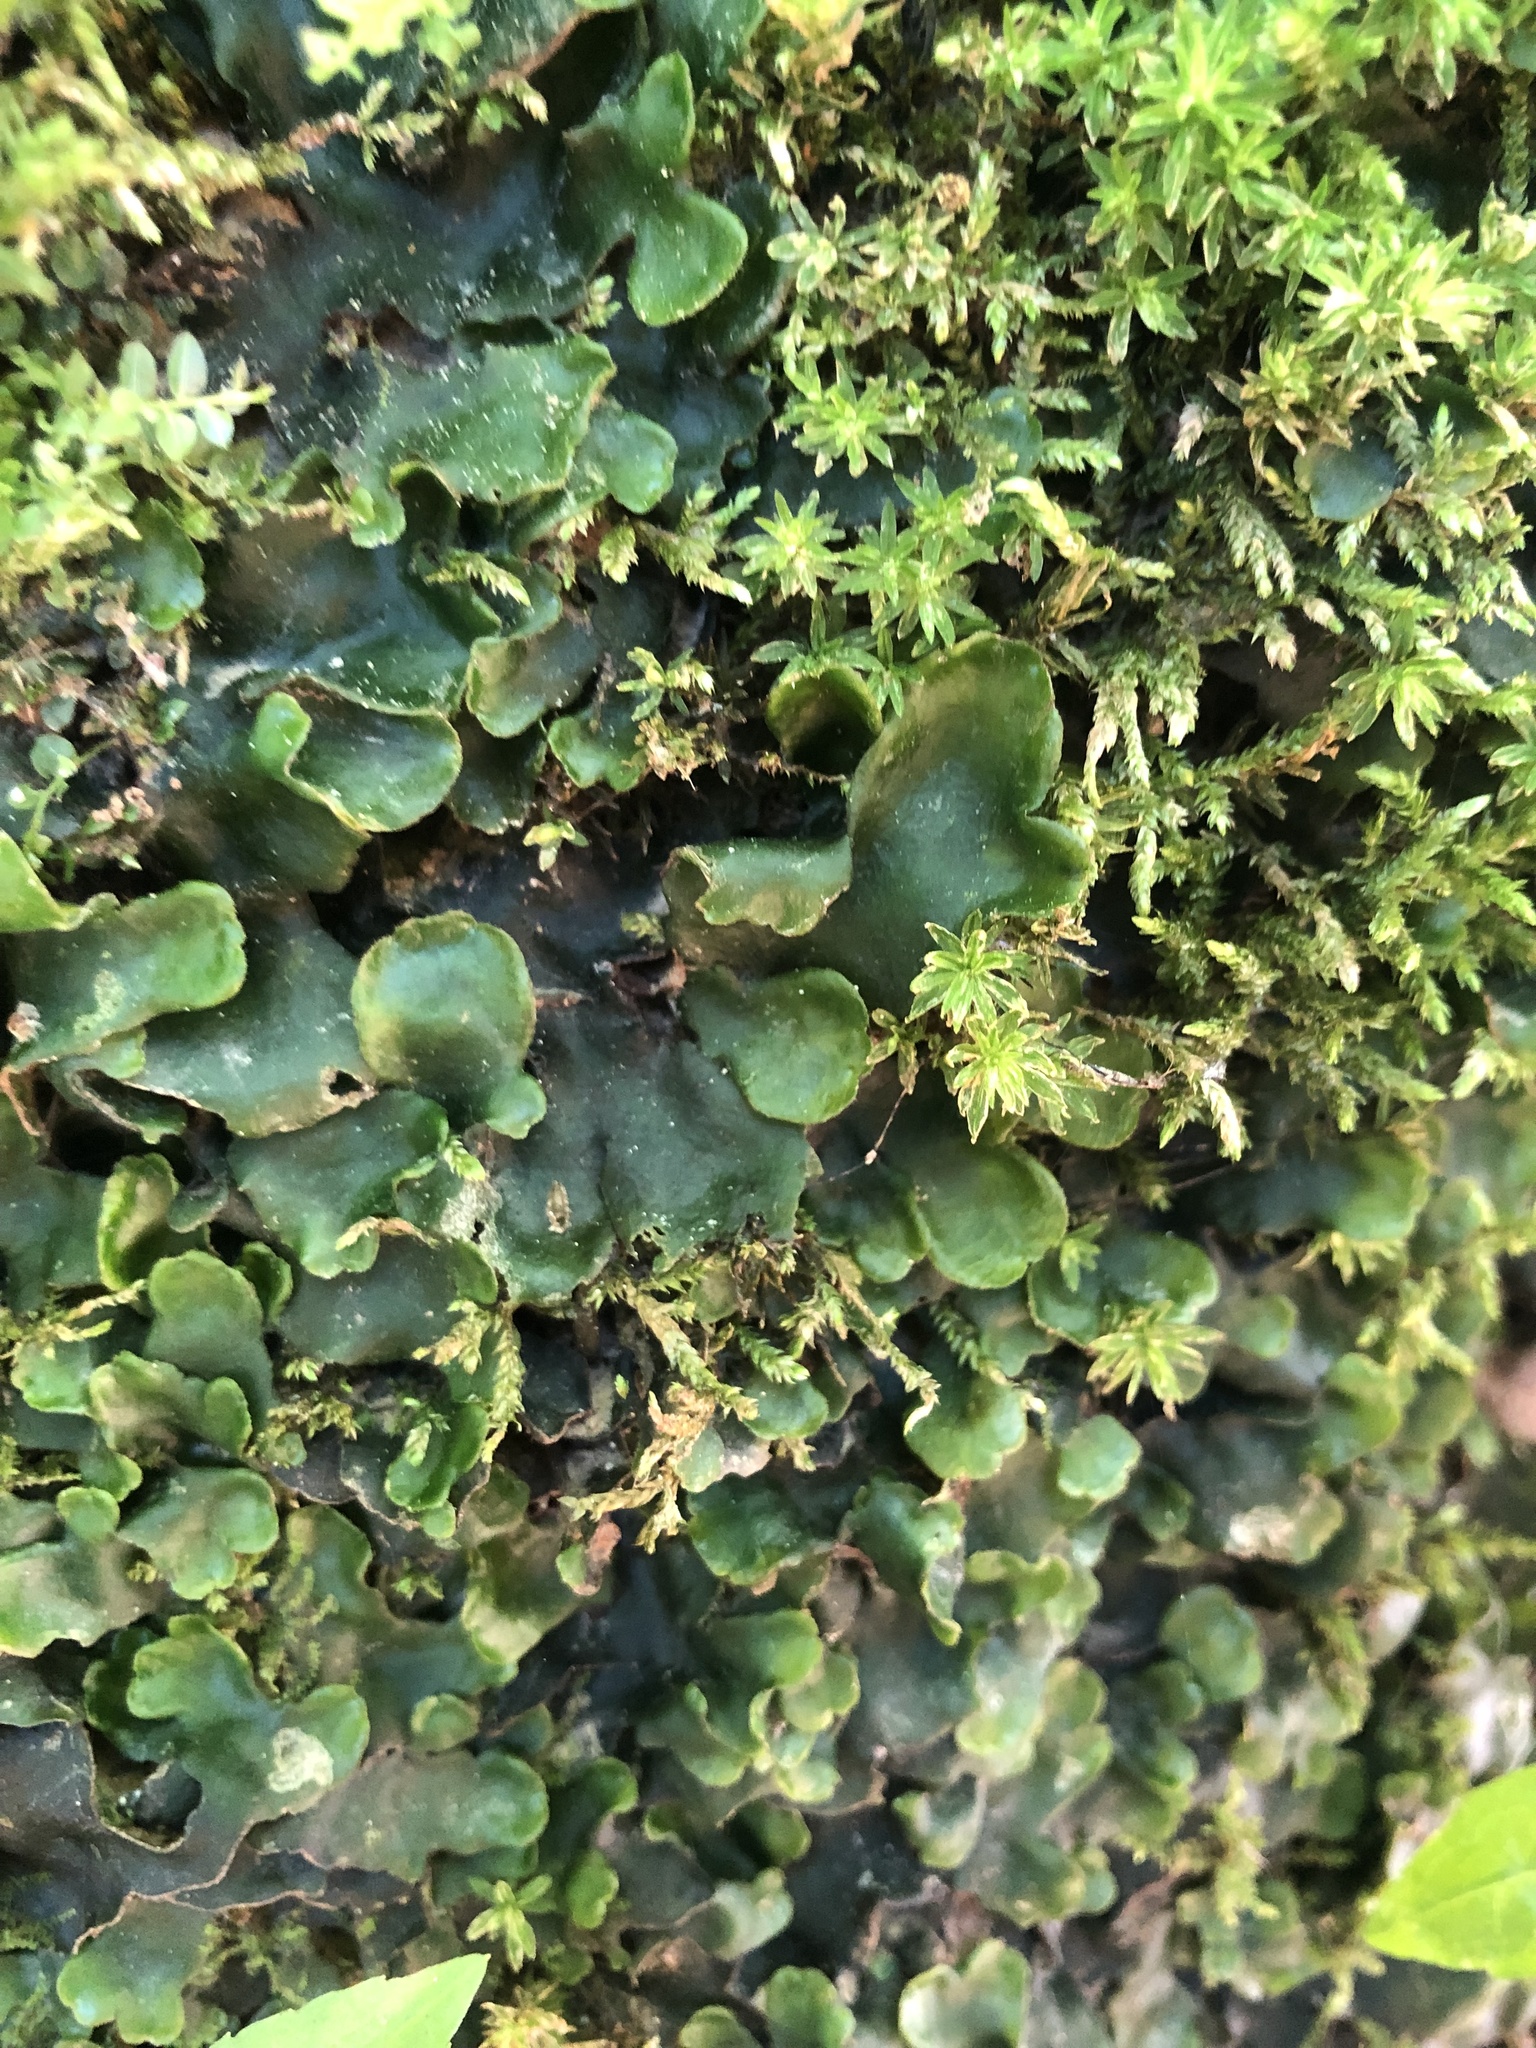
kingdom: Plantae
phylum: Marchantiophyta
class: Marchantiopsida
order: Marchantiales
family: Dumortieraceae
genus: Dumortiera
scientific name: Dumortiera hirsuta
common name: Dumortier's liverwort
